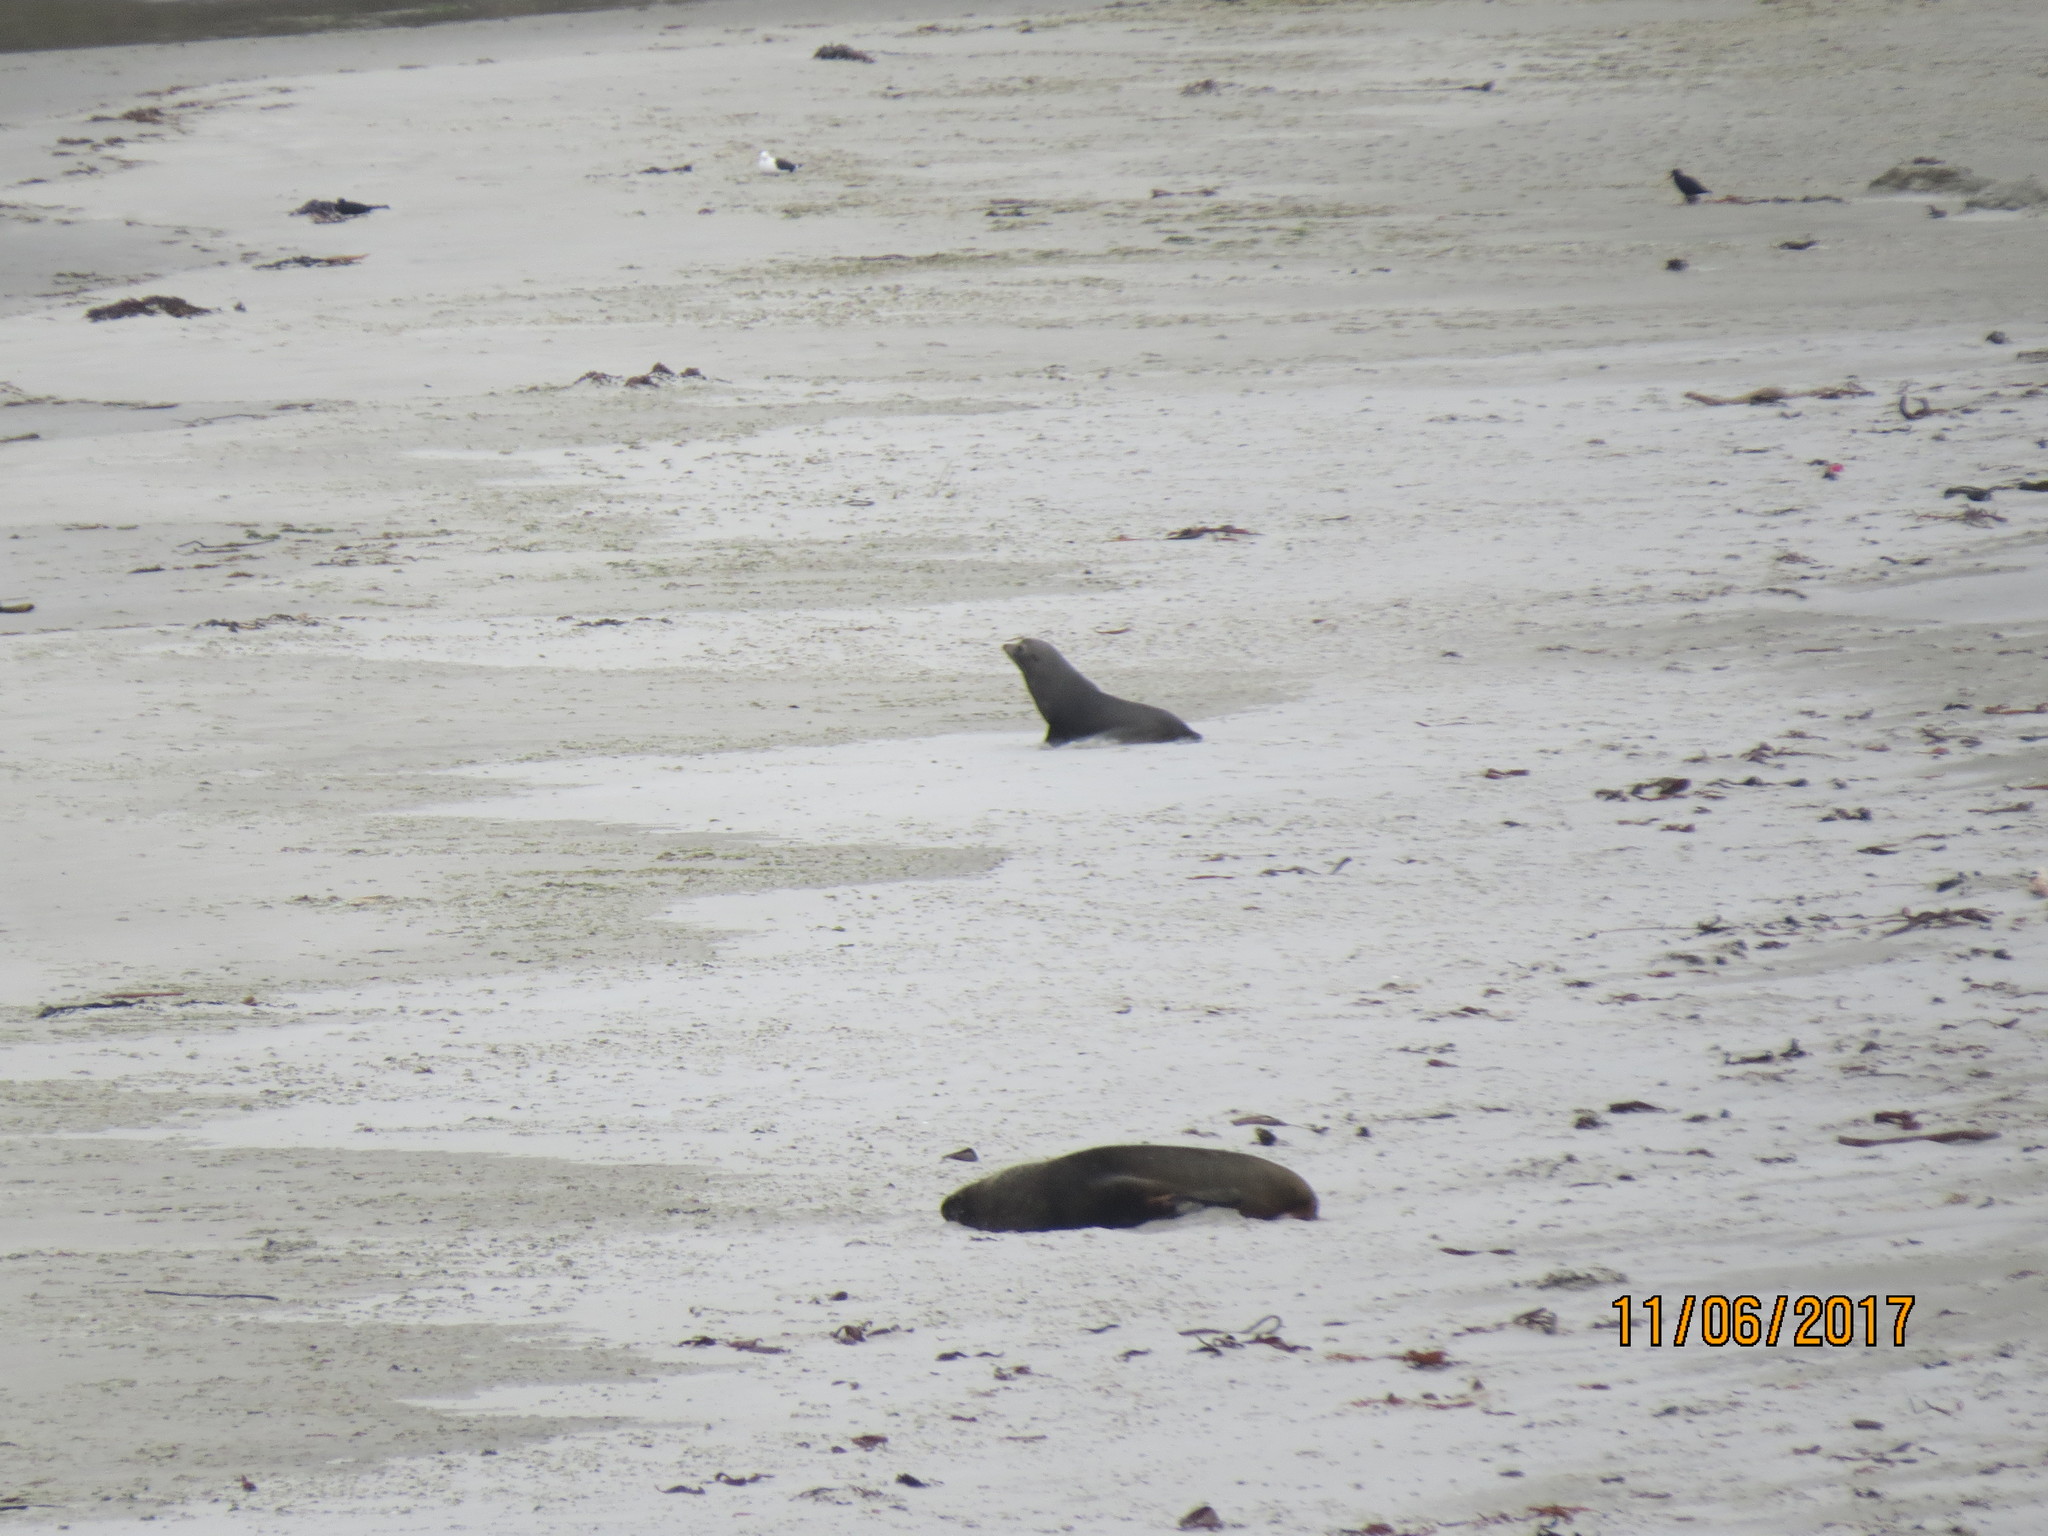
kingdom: Animalia
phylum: Chordata
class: Mammalia
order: Carnivora
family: Otariidae
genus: Arctocephalus
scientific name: Arctocephalus forsteri
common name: New zealand fur seal
